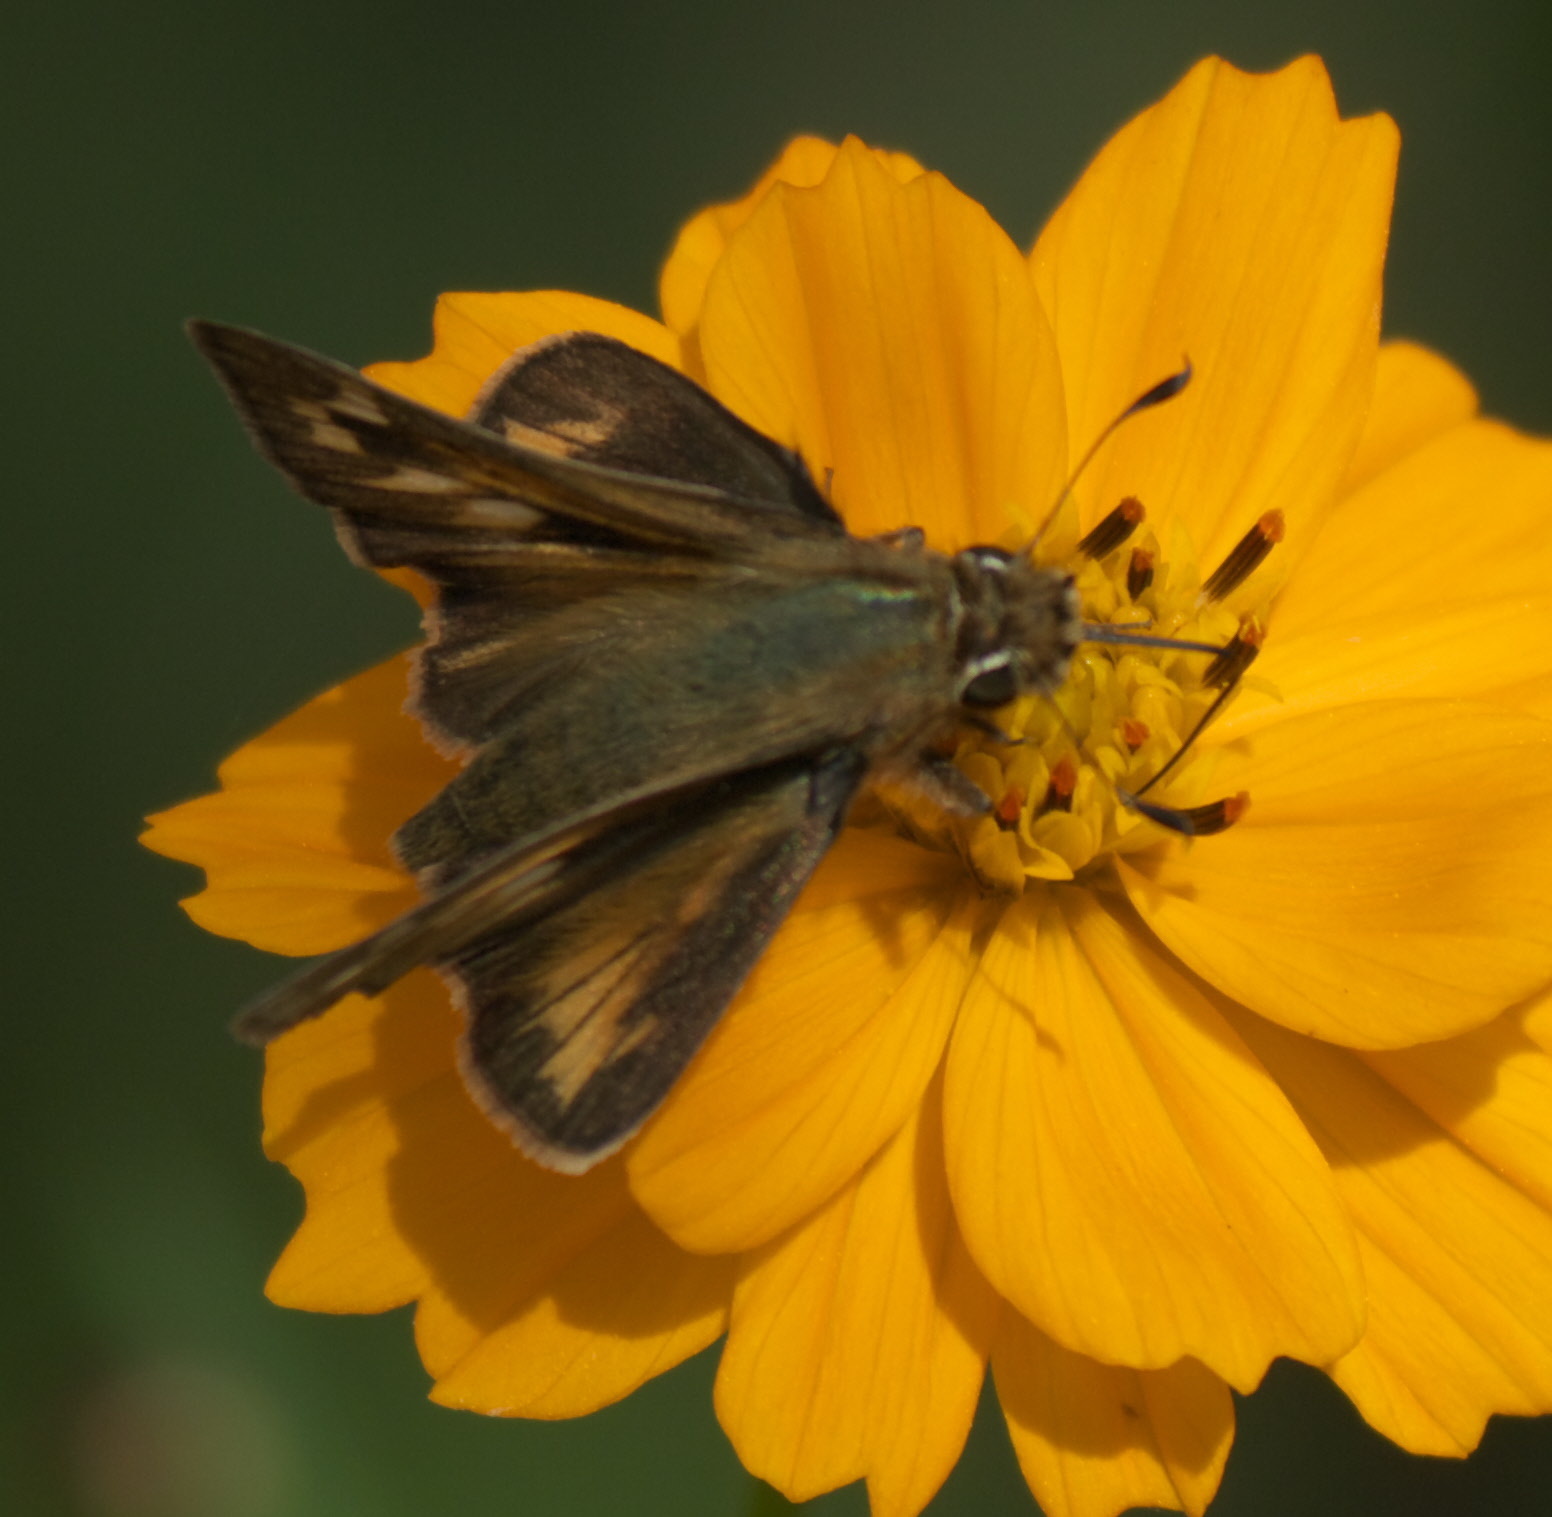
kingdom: Animalia
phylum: Arthropoda
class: Insecta
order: Lepidoptera
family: Hesperiidae
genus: Atalopedes
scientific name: Atalopedes
